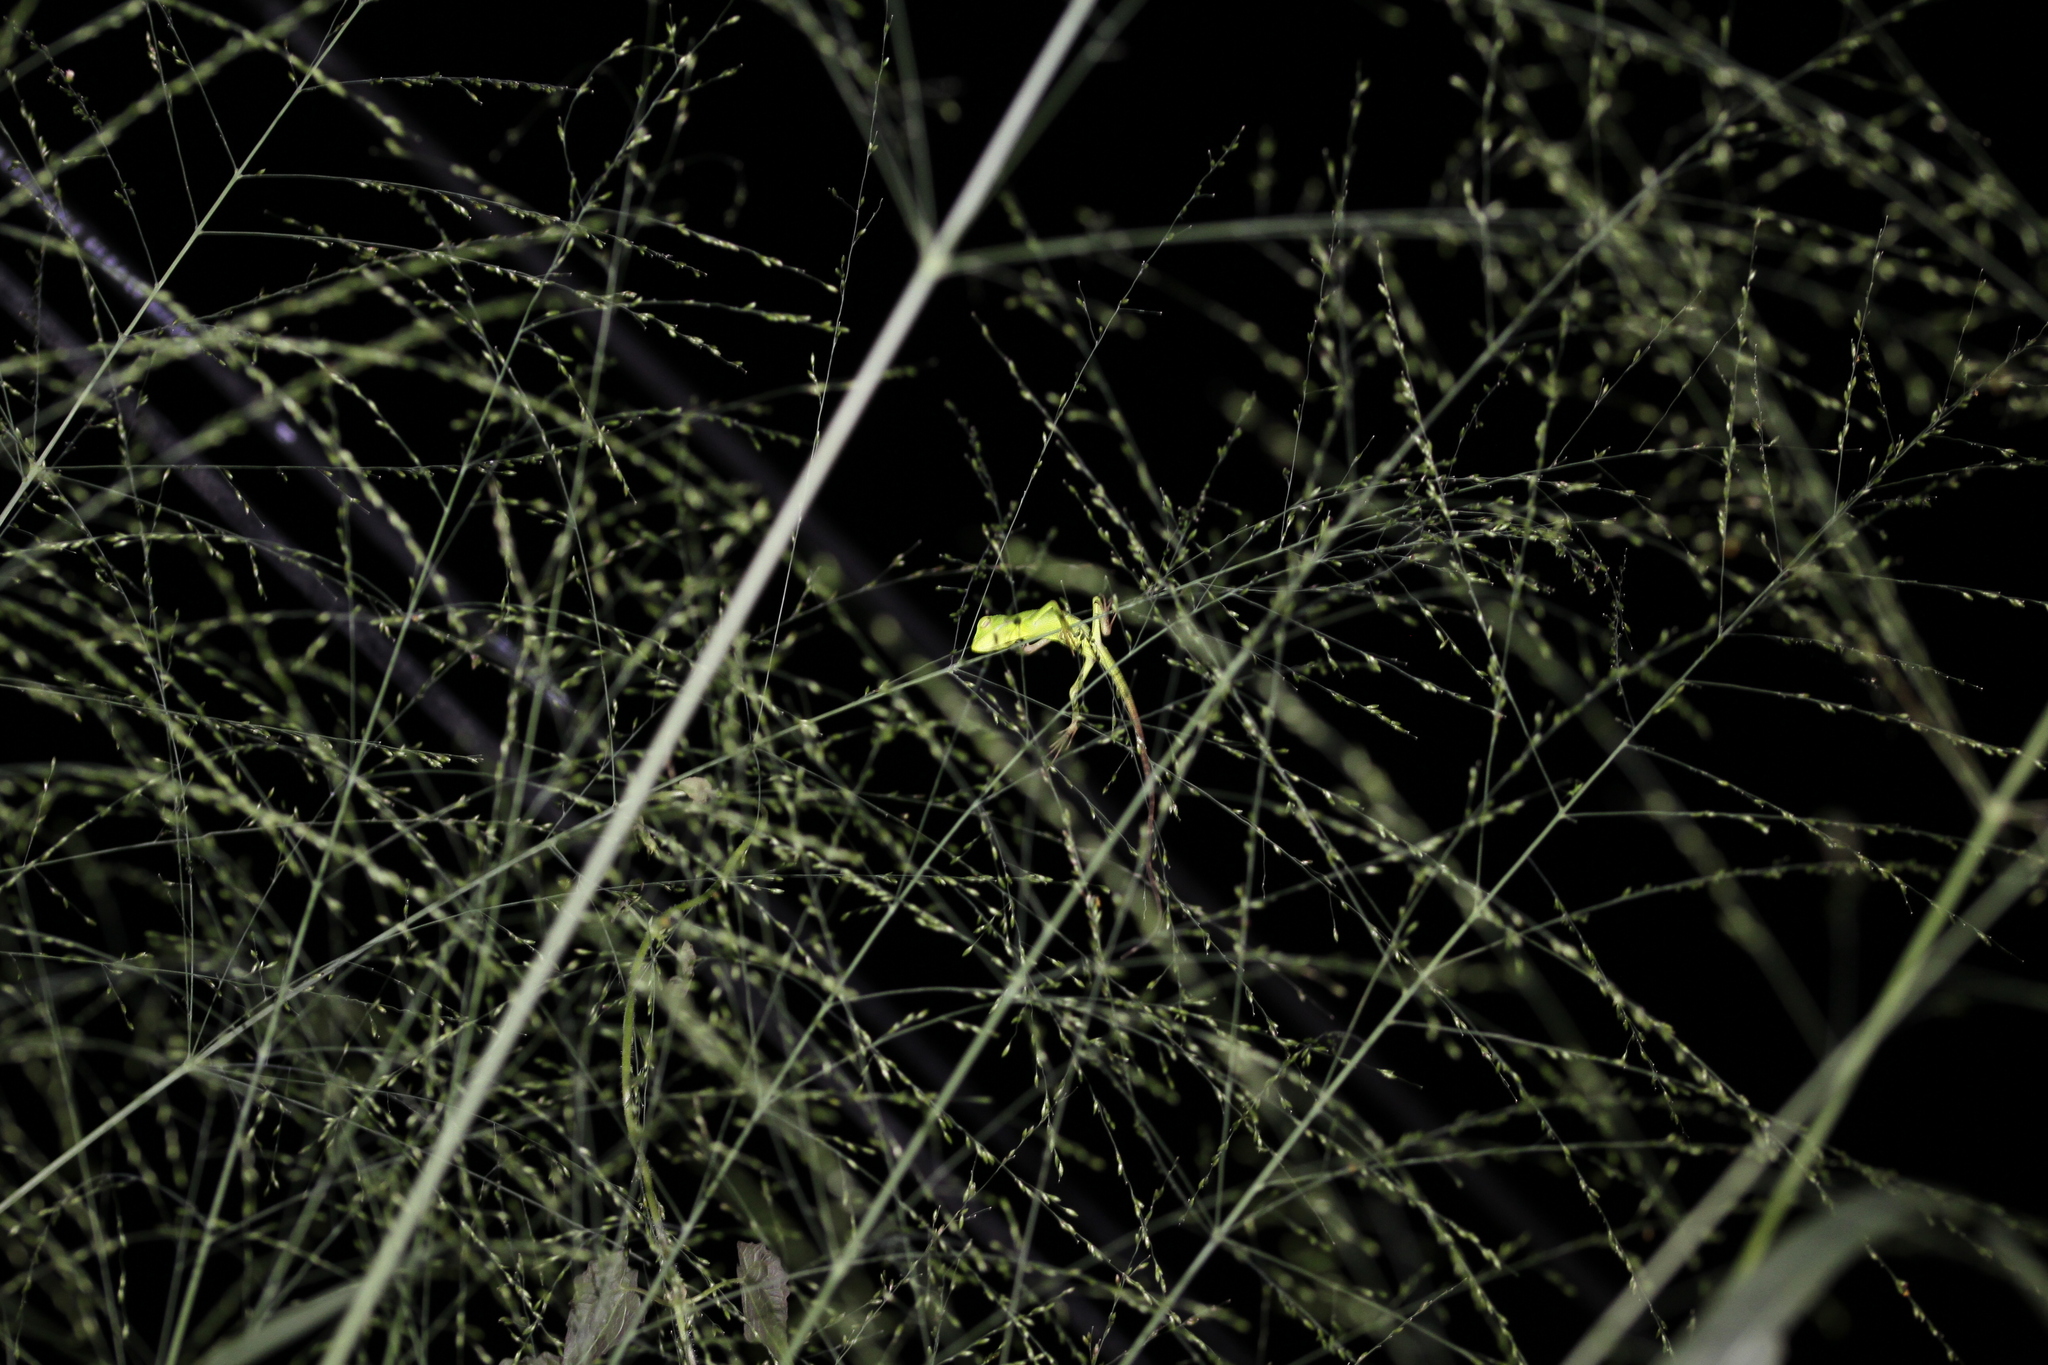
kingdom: Animalia
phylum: Chordata
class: Squamata
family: Agamidae
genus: Bronchocela
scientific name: Bronchocela jubata
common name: Maned forest lizard
